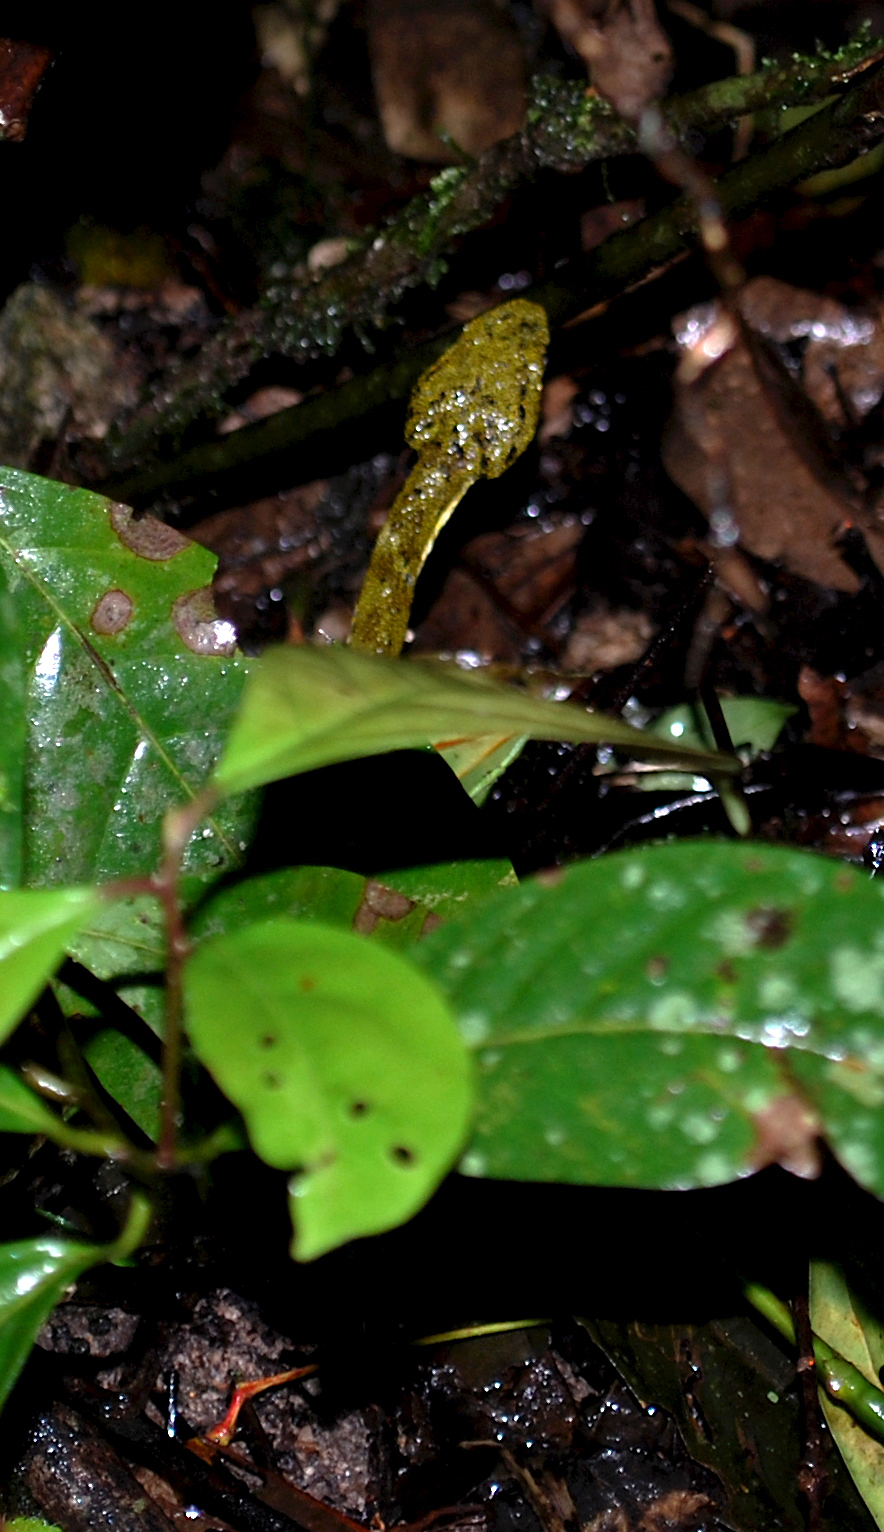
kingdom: Animalia
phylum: Chordata
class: Squamata
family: Viperidae
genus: Bothriechis
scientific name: Bothriechis schlegelii
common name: Eyelash viper
